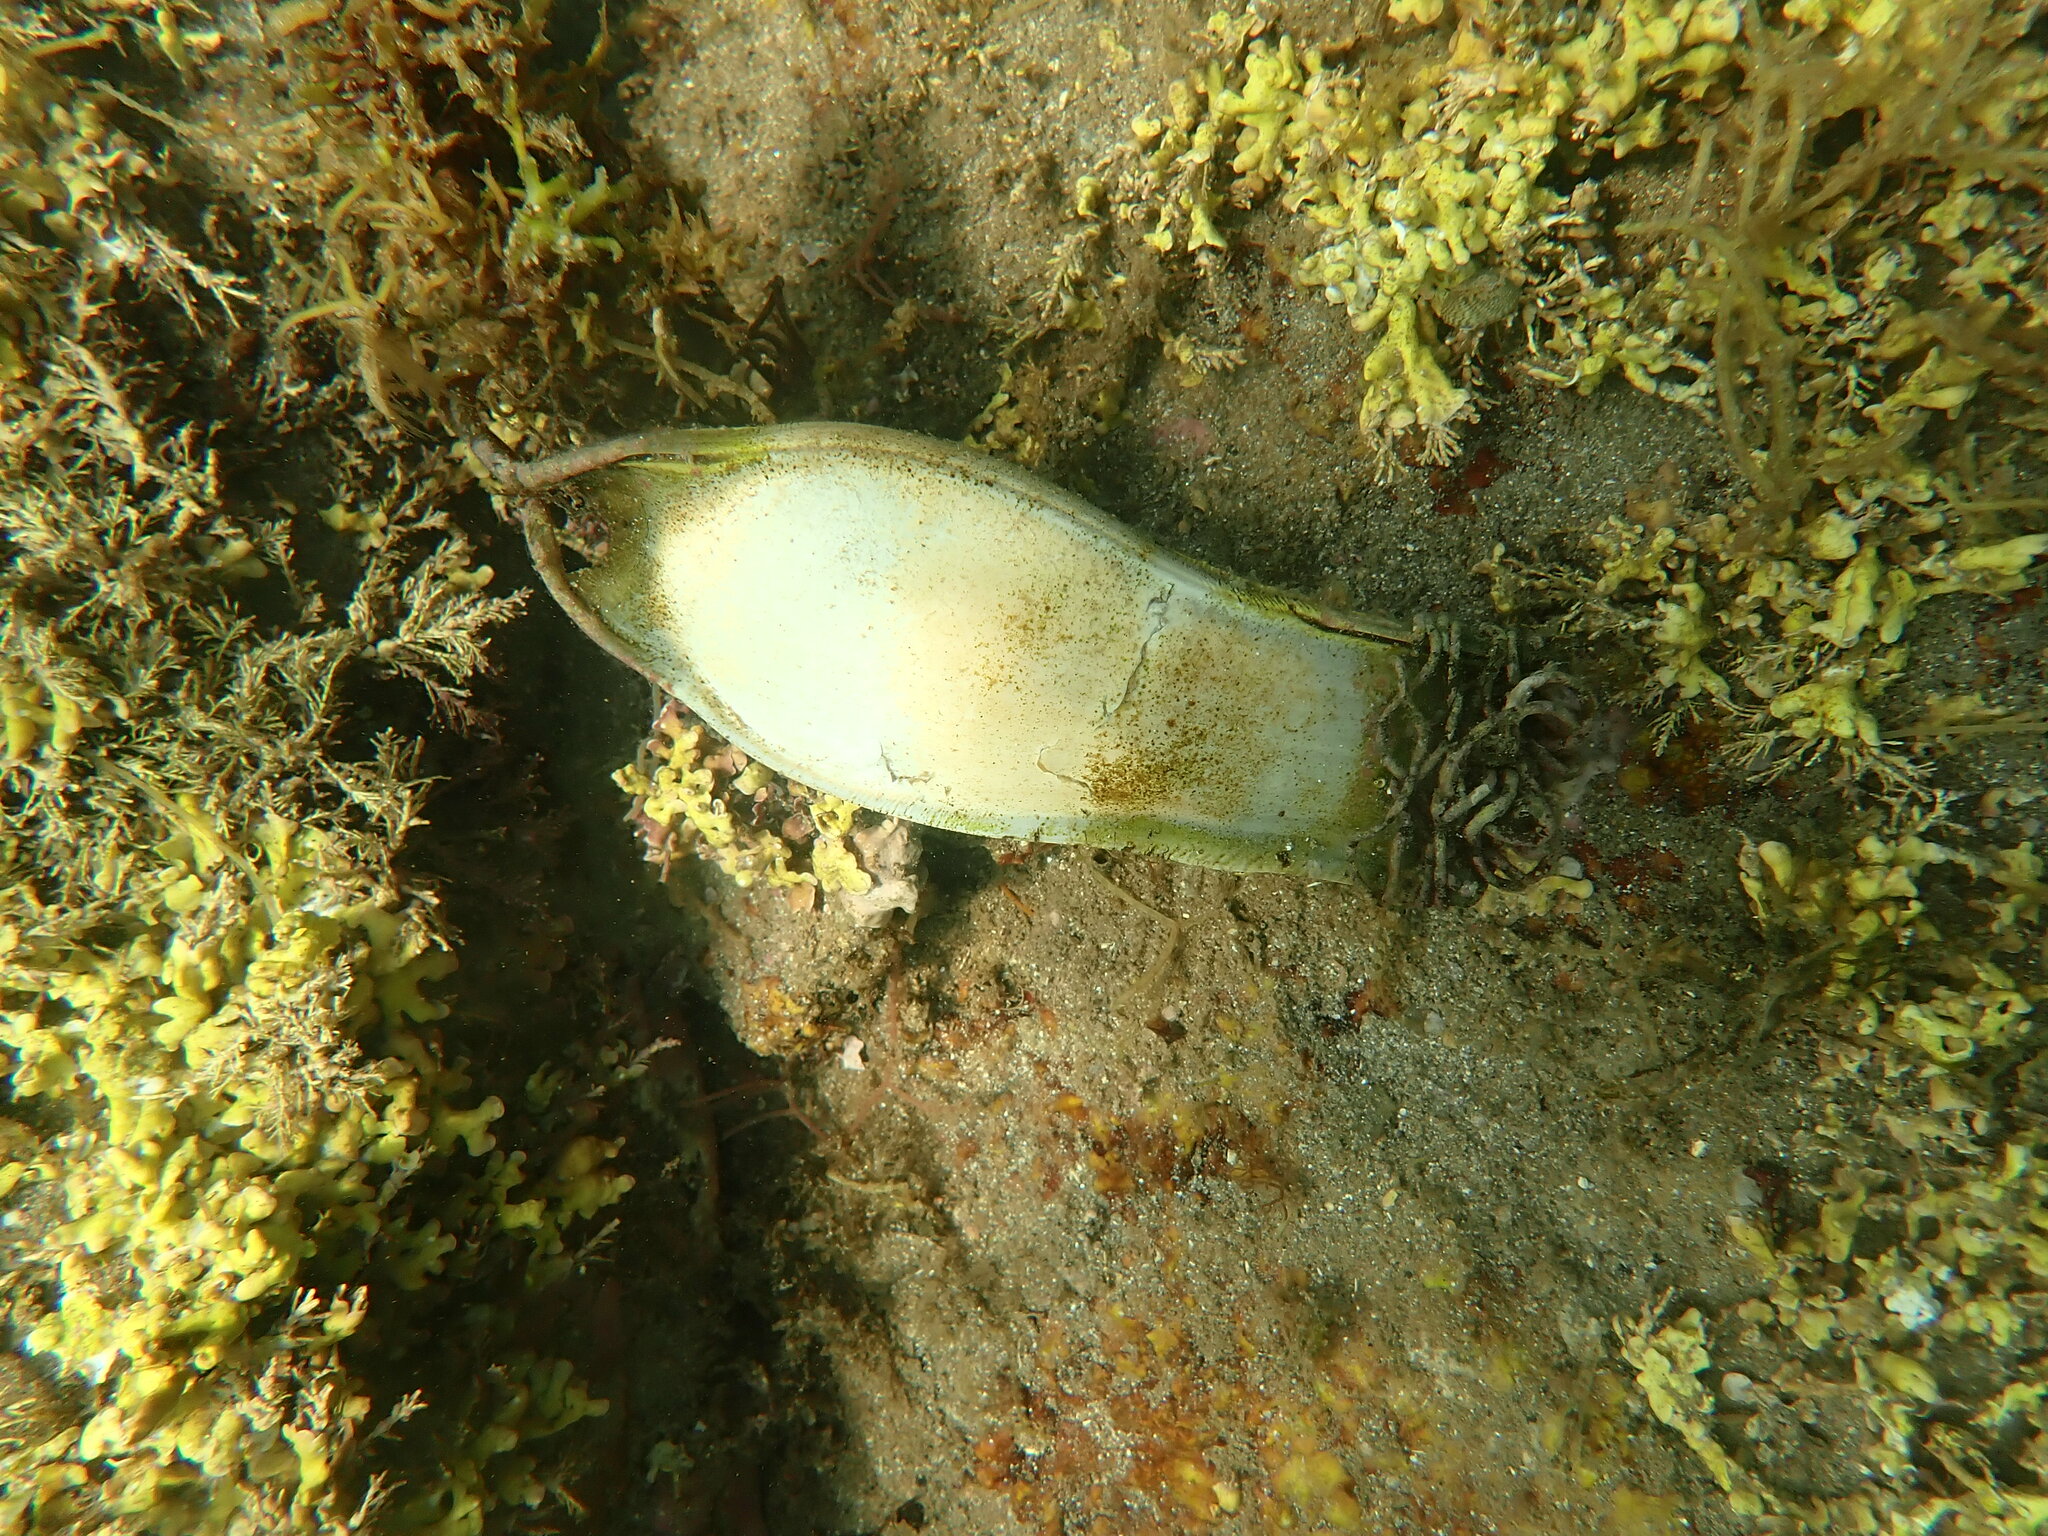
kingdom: Animalia
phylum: Chordata
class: Elasmobranchii
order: Carcharhiniformes
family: Scyliorhinidae
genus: Scyliorhinus
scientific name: Scyliorhinus stellaris
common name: Nursehound
